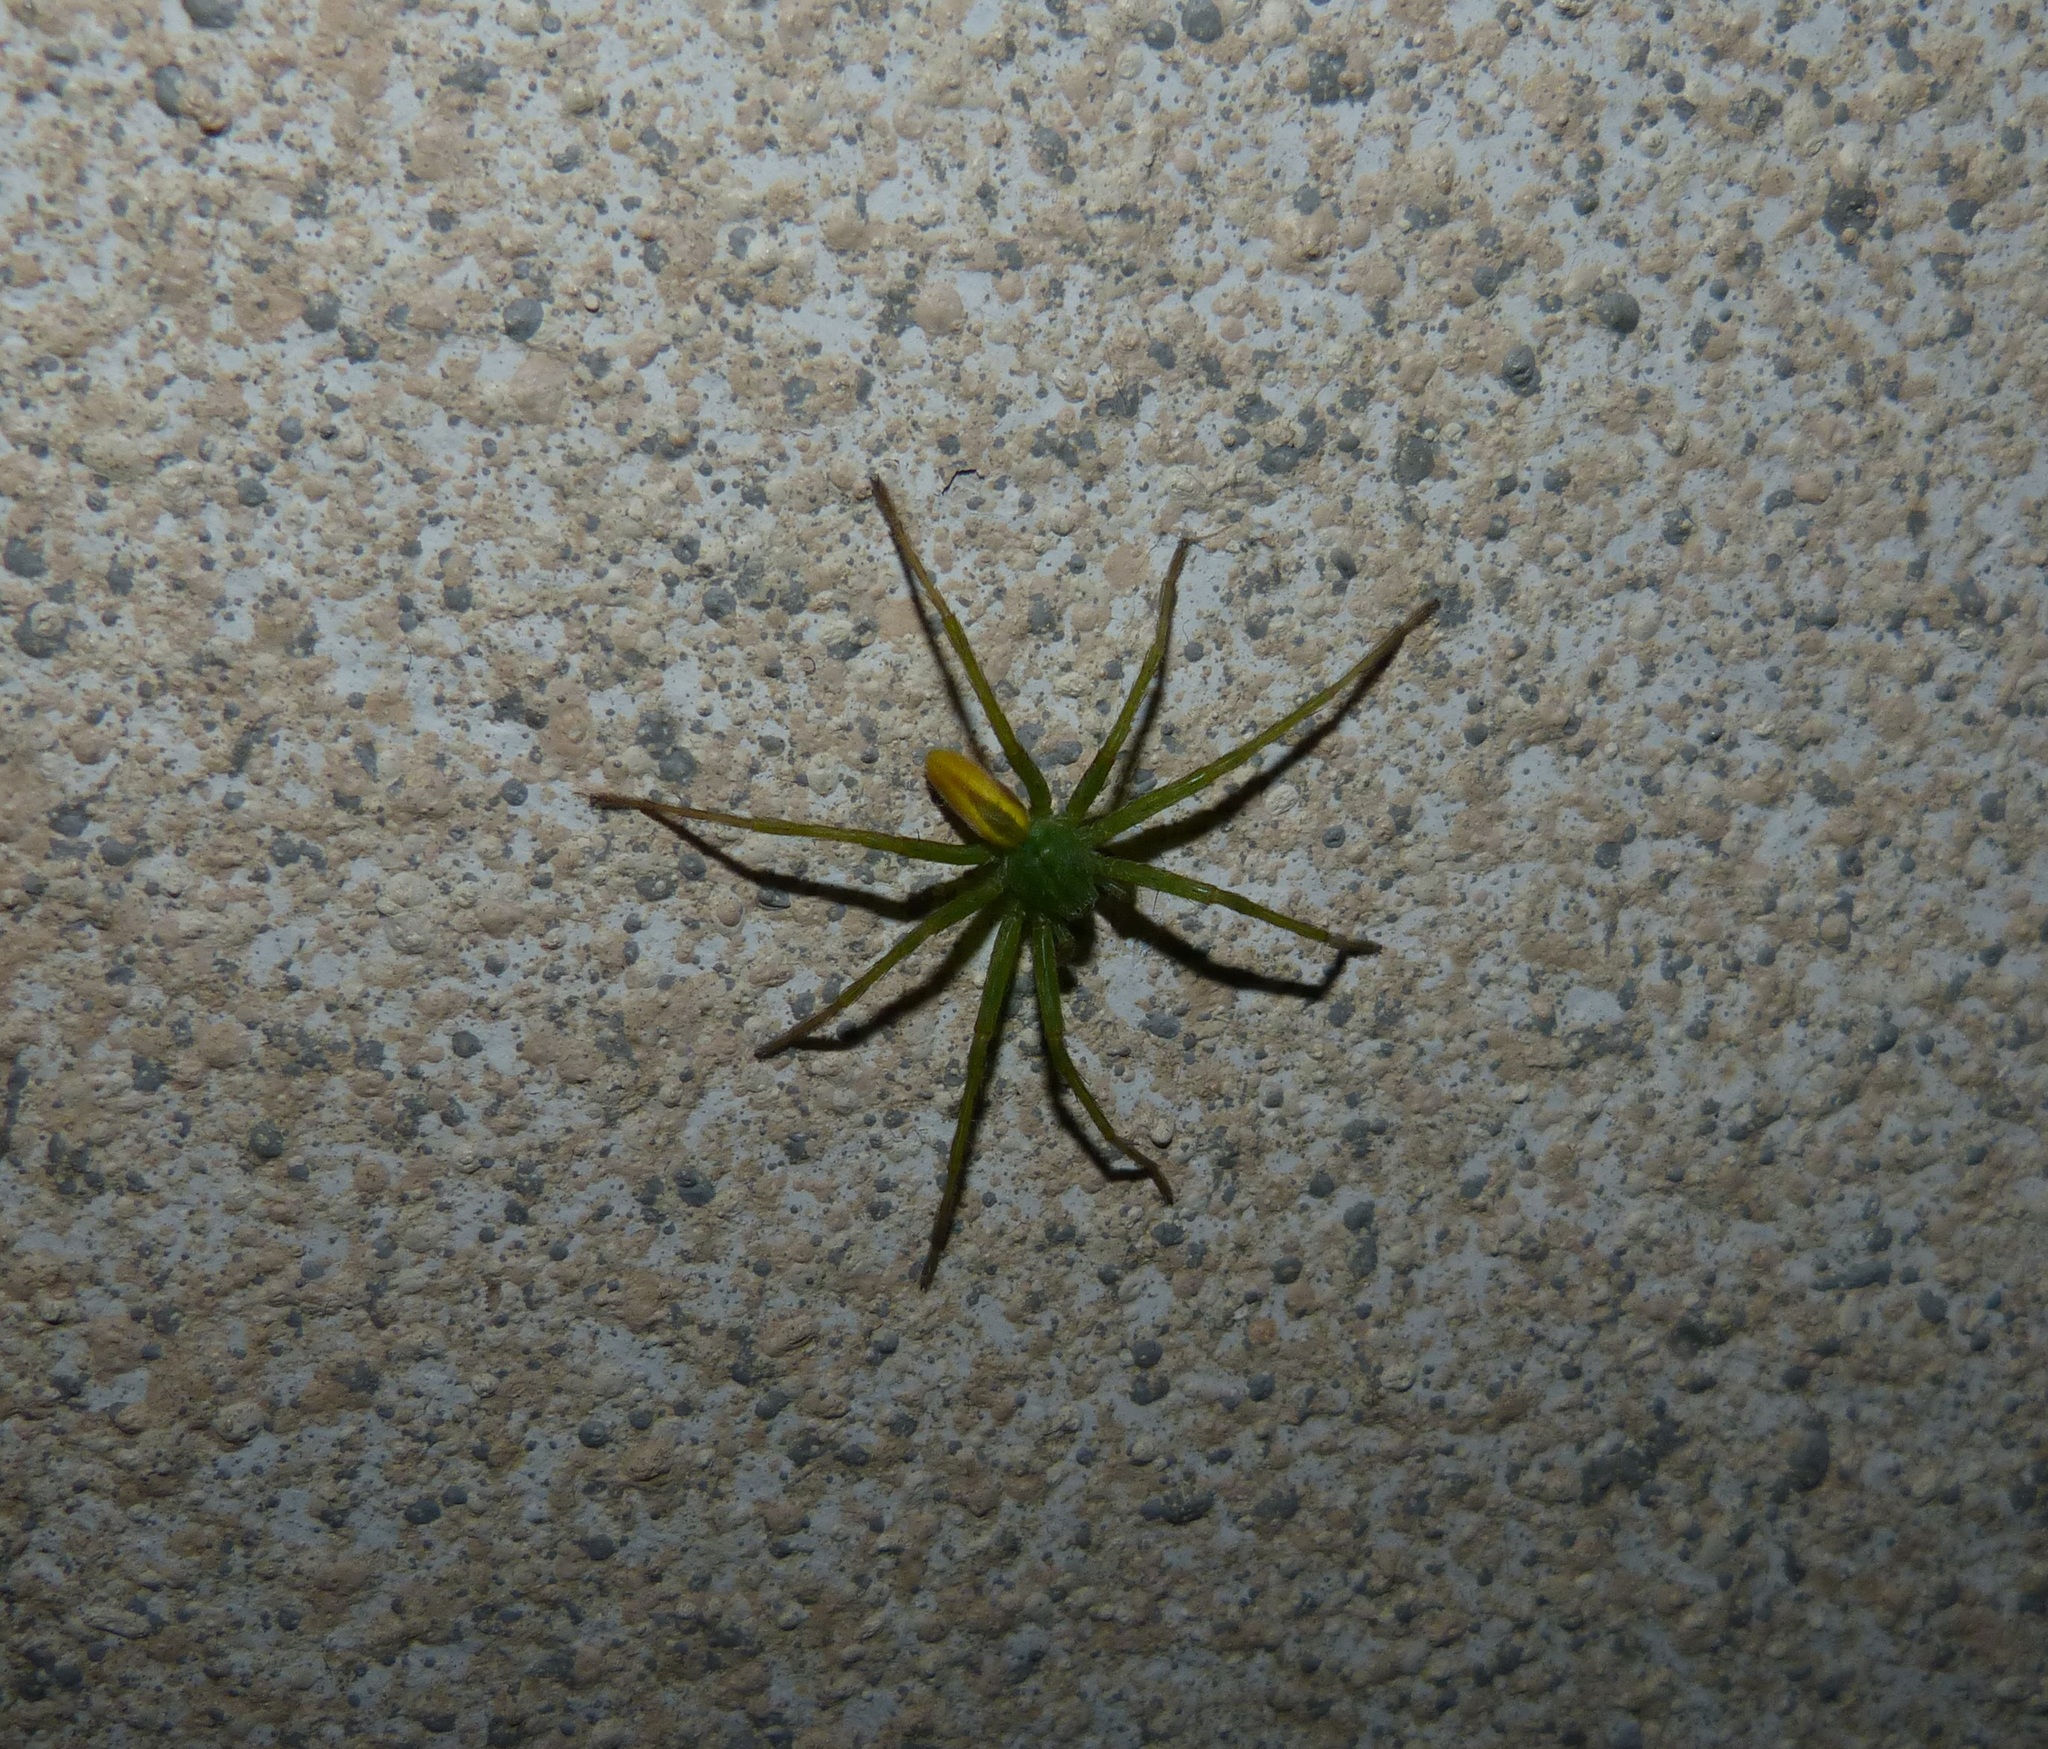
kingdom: Animalia
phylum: Arthropoda
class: Arachnida
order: Araneae
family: Sparassidae
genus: Micrommata
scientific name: Micrommata virescens
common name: Green spider
